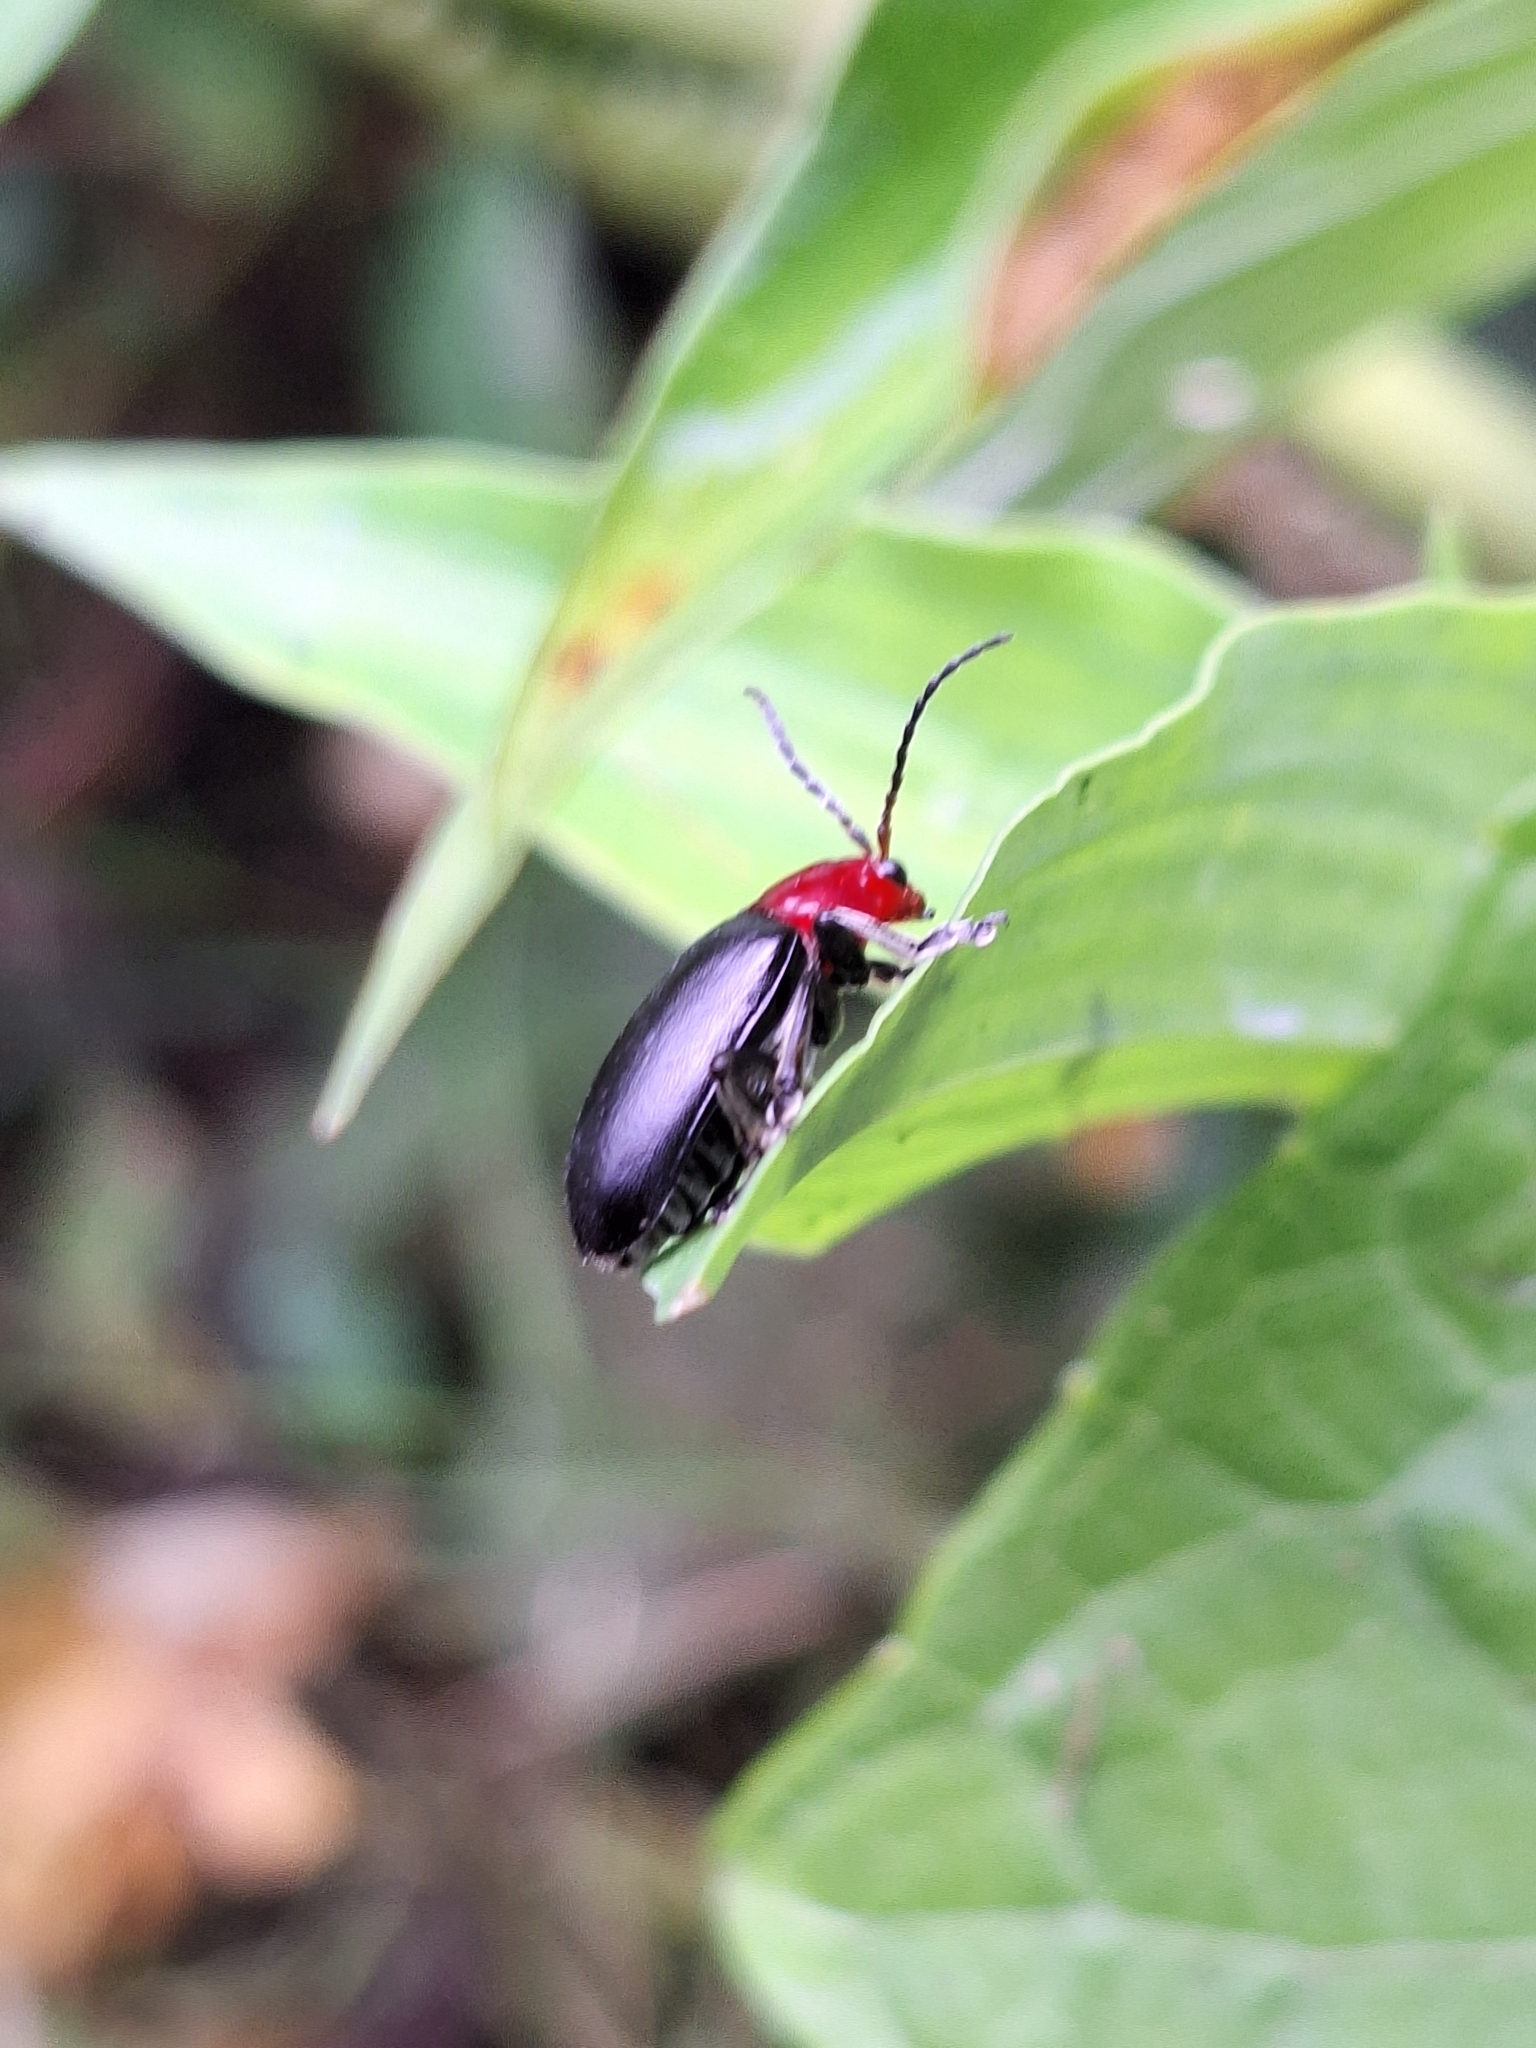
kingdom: Animalia
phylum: Arthropoda
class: Insecta
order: Coleoptera
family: Chrysomelidae
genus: Cacoscelis
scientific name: Cacoscelis
